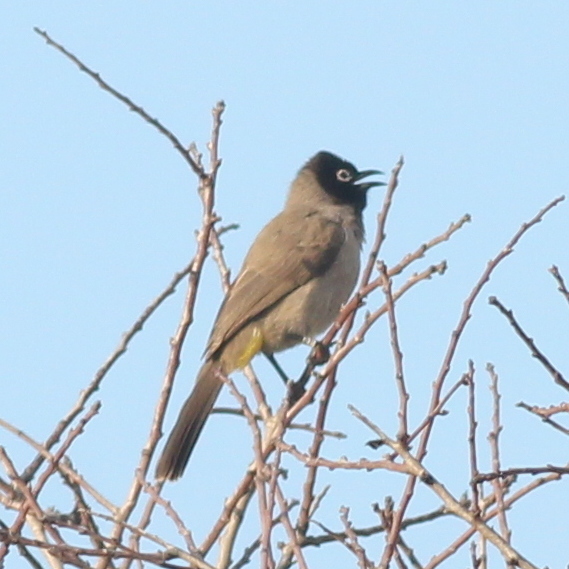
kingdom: Animalia
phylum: Chordata
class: Aves
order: Passeriformes
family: Pycnonotidae
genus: Pycnonotus
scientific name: Pycnonotus xanthopygos
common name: White-spectacled bulbul
